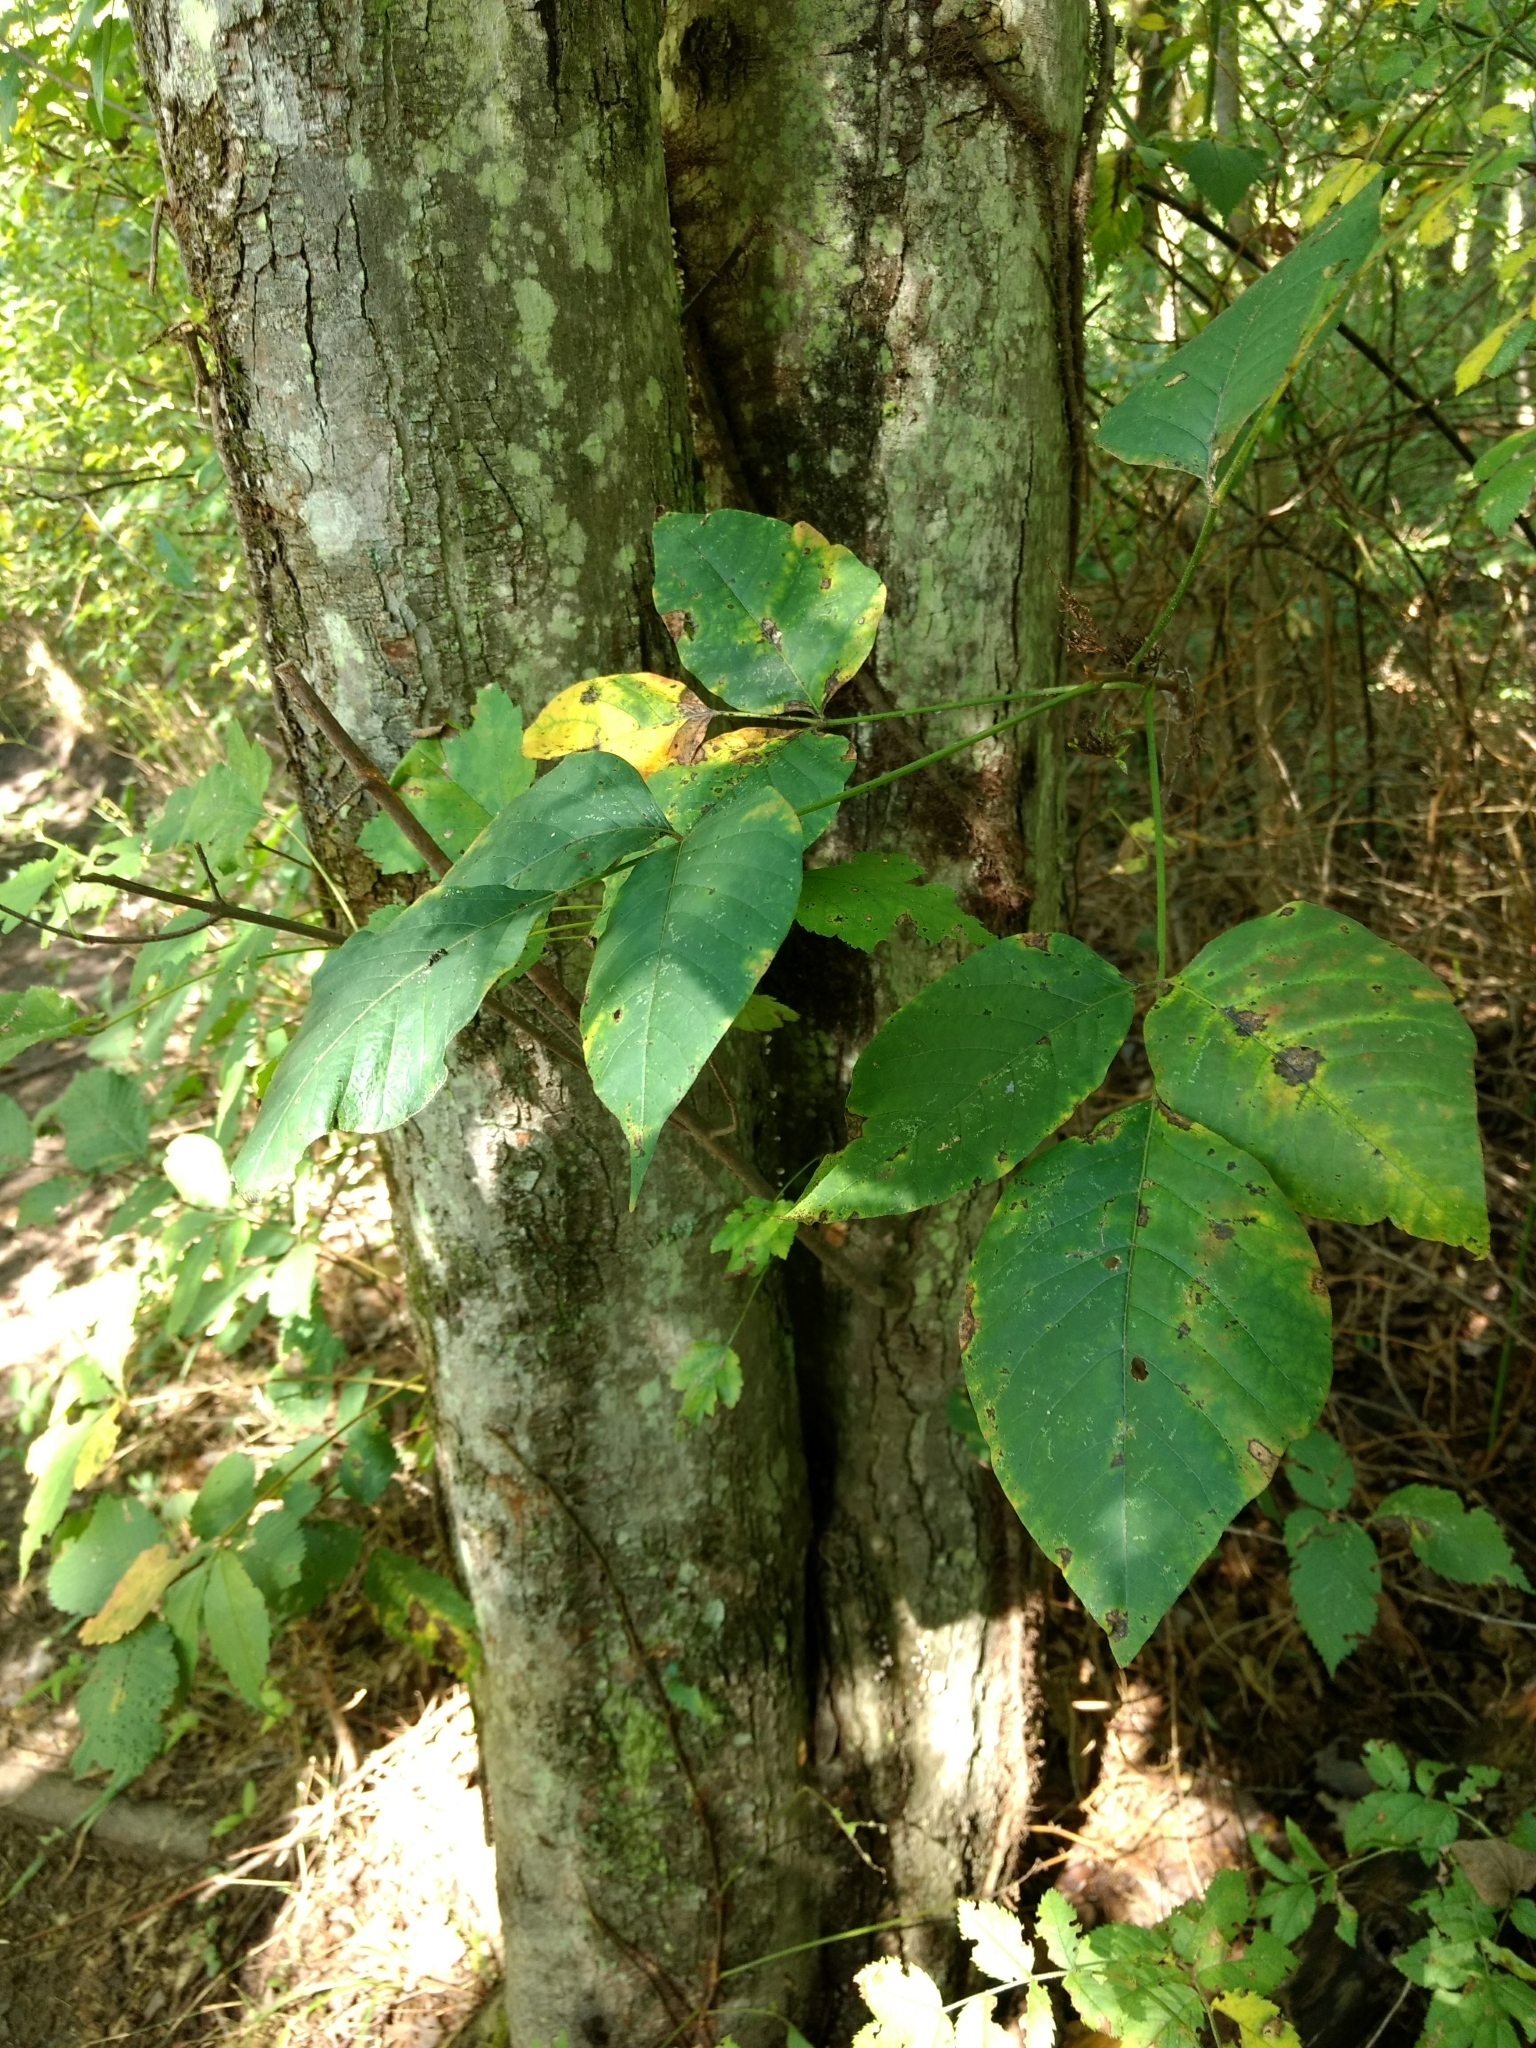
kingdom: Plantae
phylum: Tracheophyta
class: Magnoliopsida
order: Sapindales
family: Anacardiaceae
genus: Toxicodendron
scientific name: Toxicodendron radicans
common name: Poison ivy
